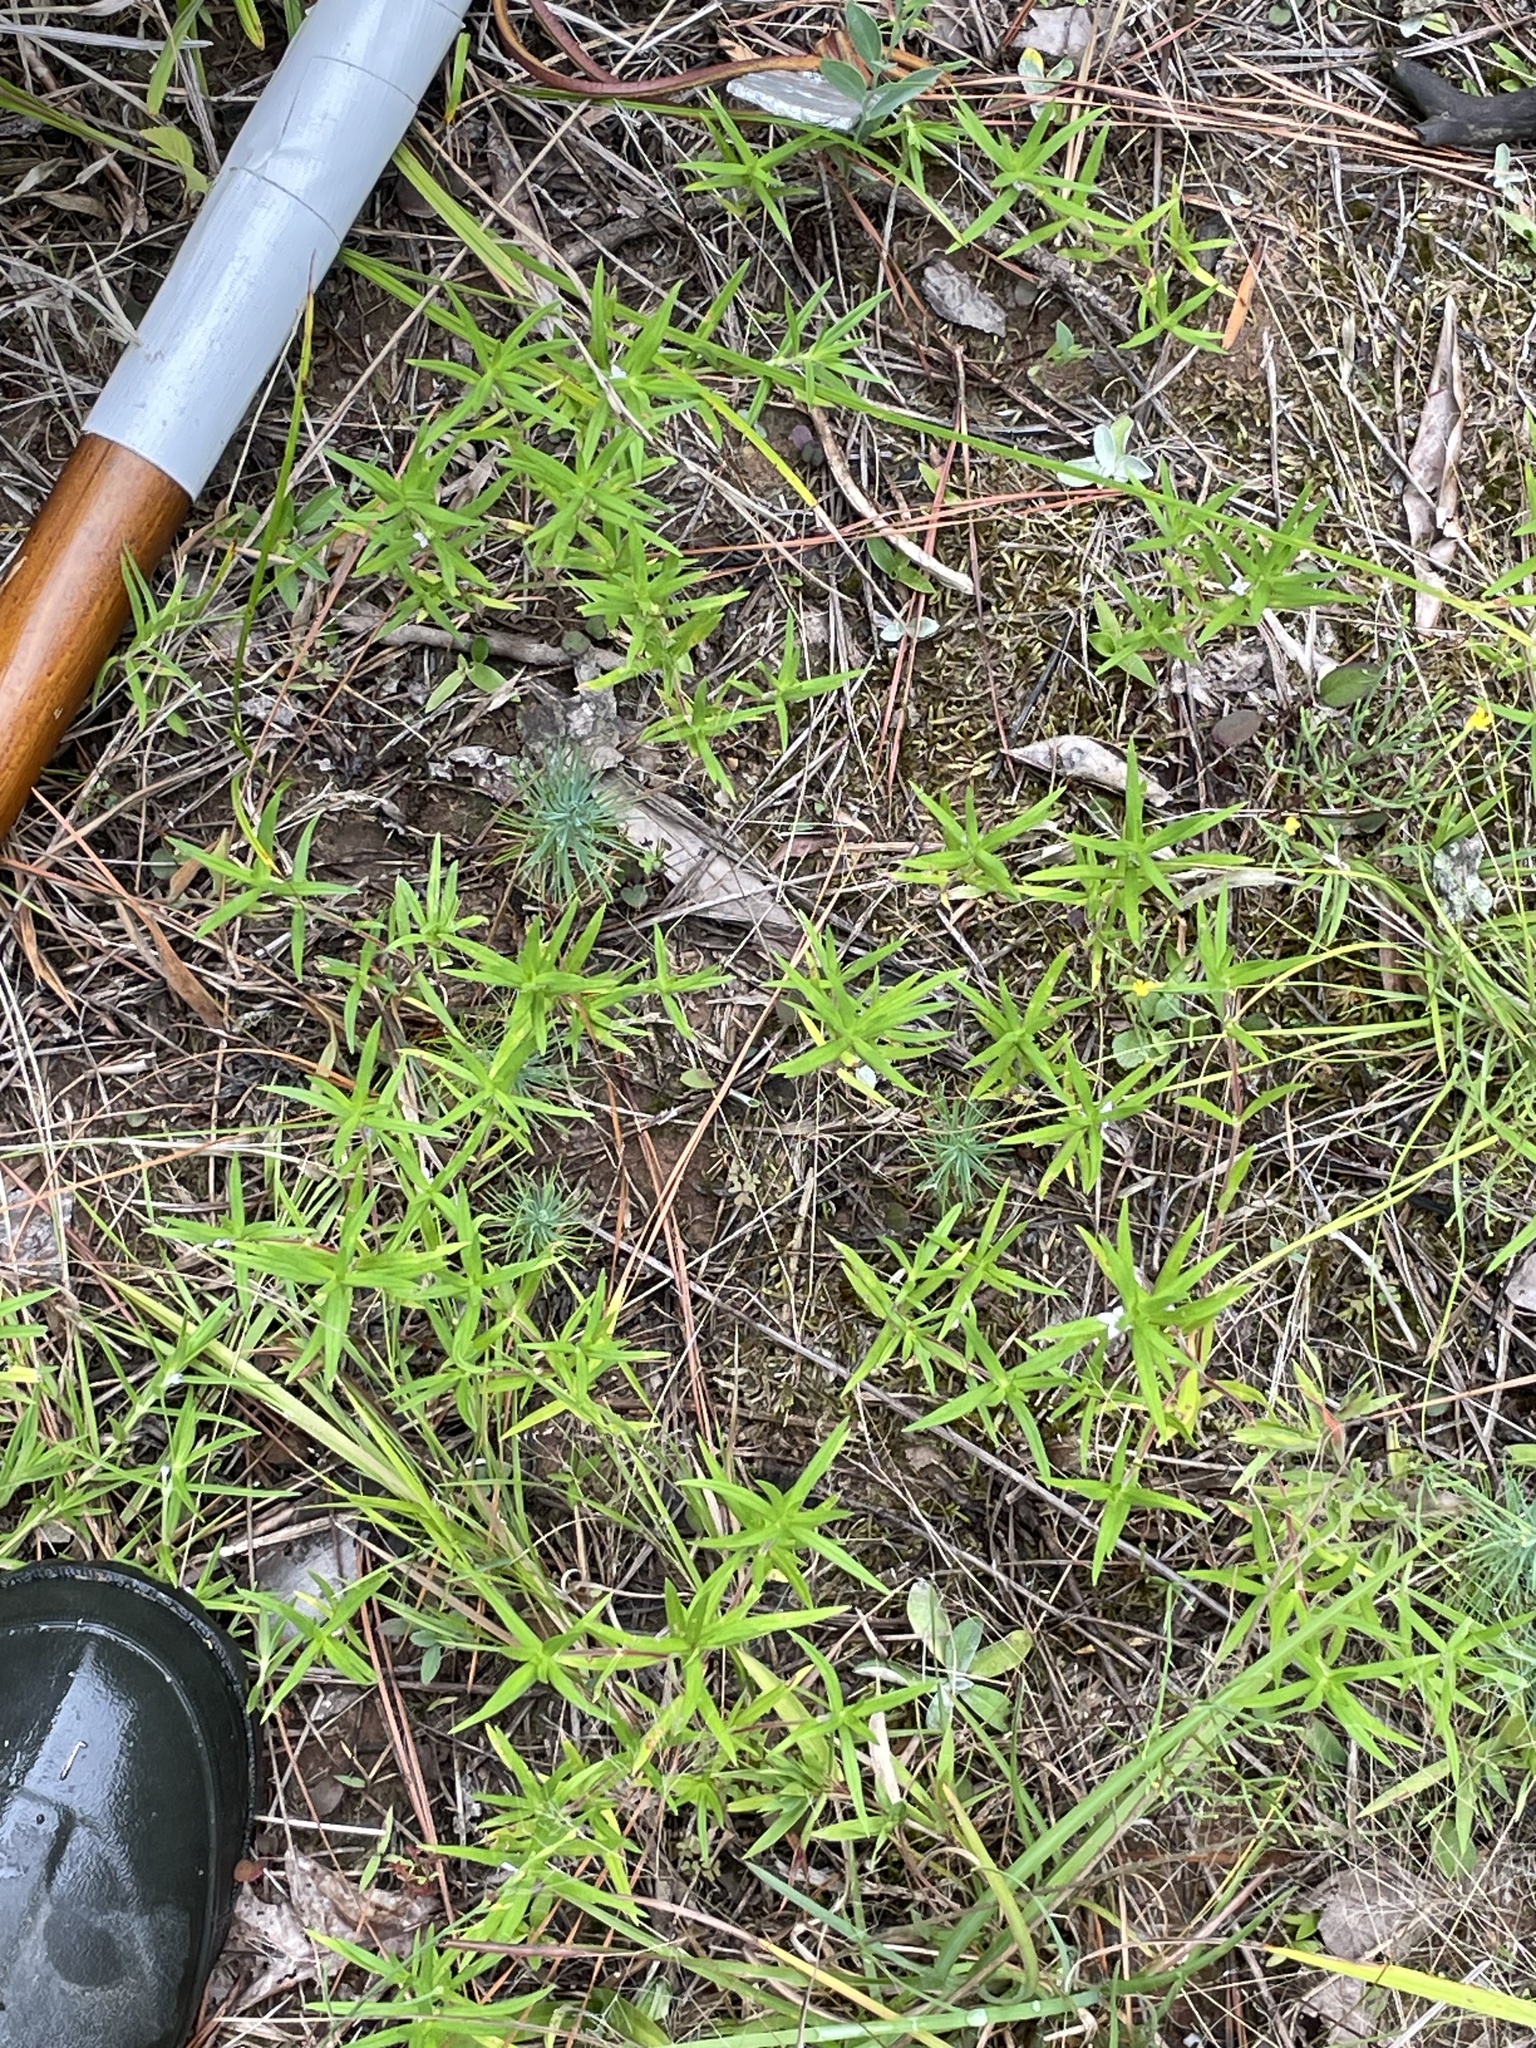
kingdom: Plantae
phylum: Tracheophyta
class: Magnoliopsida
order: Gentianales
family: Rubiaceae
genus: Hexasepalum
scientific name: Hexasepalum teres
